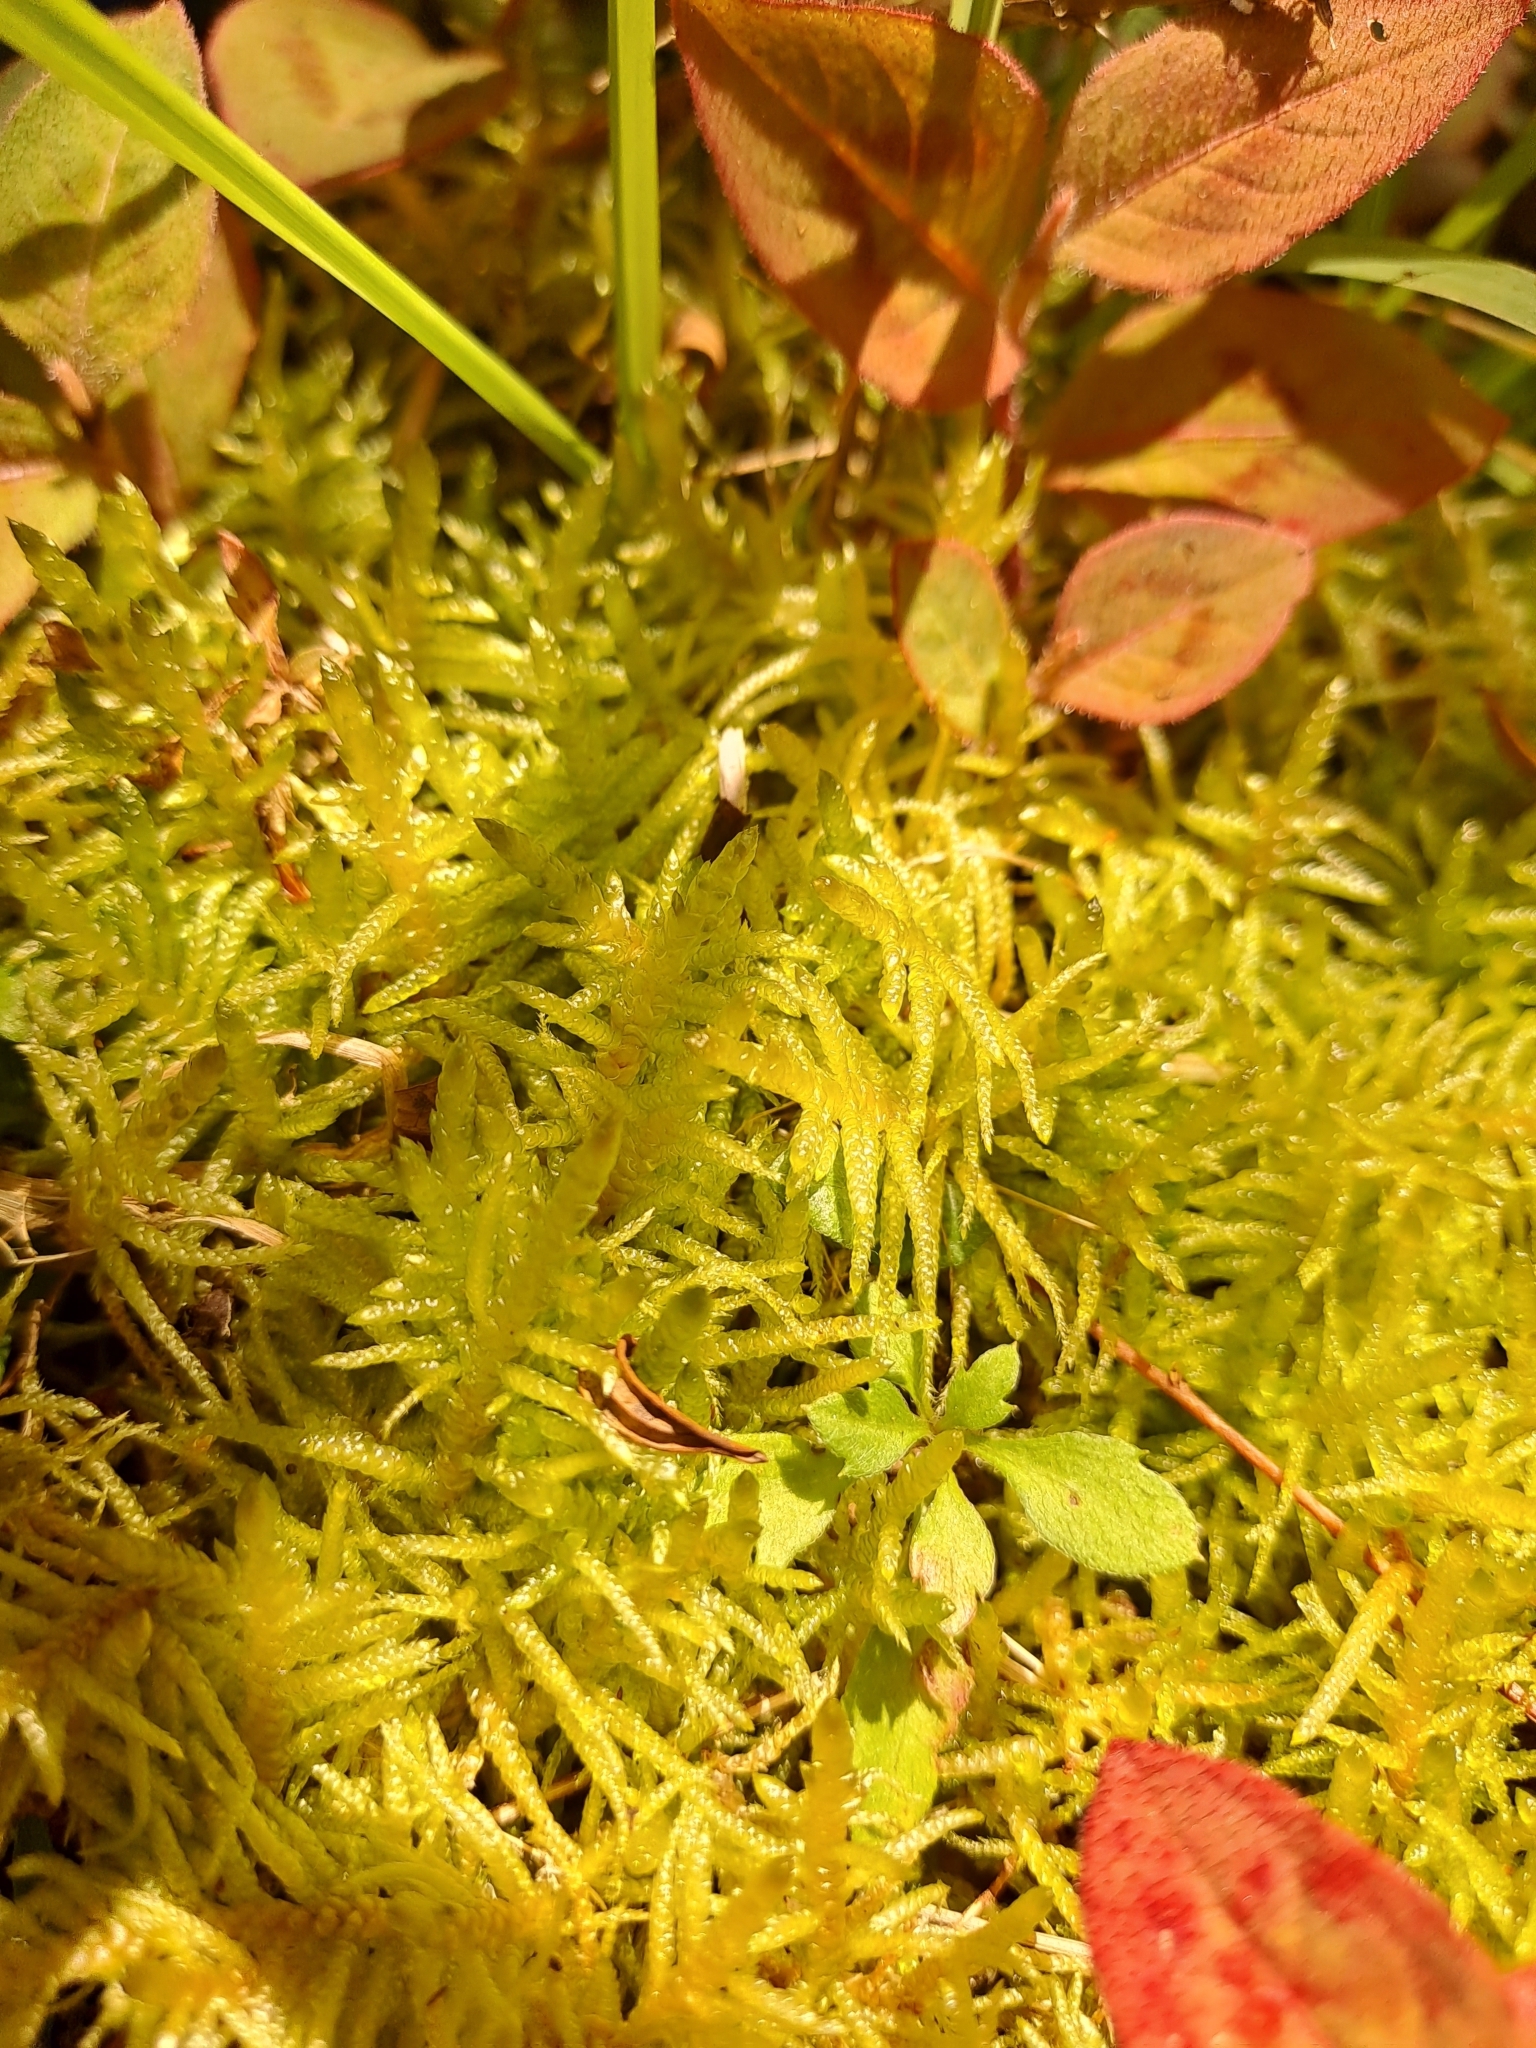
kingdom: Plantae
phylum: Bryophyta
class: Bryopsida
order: Hypnales
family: Brachytheciaceae
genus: Pseudoscleropodium
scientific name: Pseudoscleropodium purum
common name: Neat feather-moss
